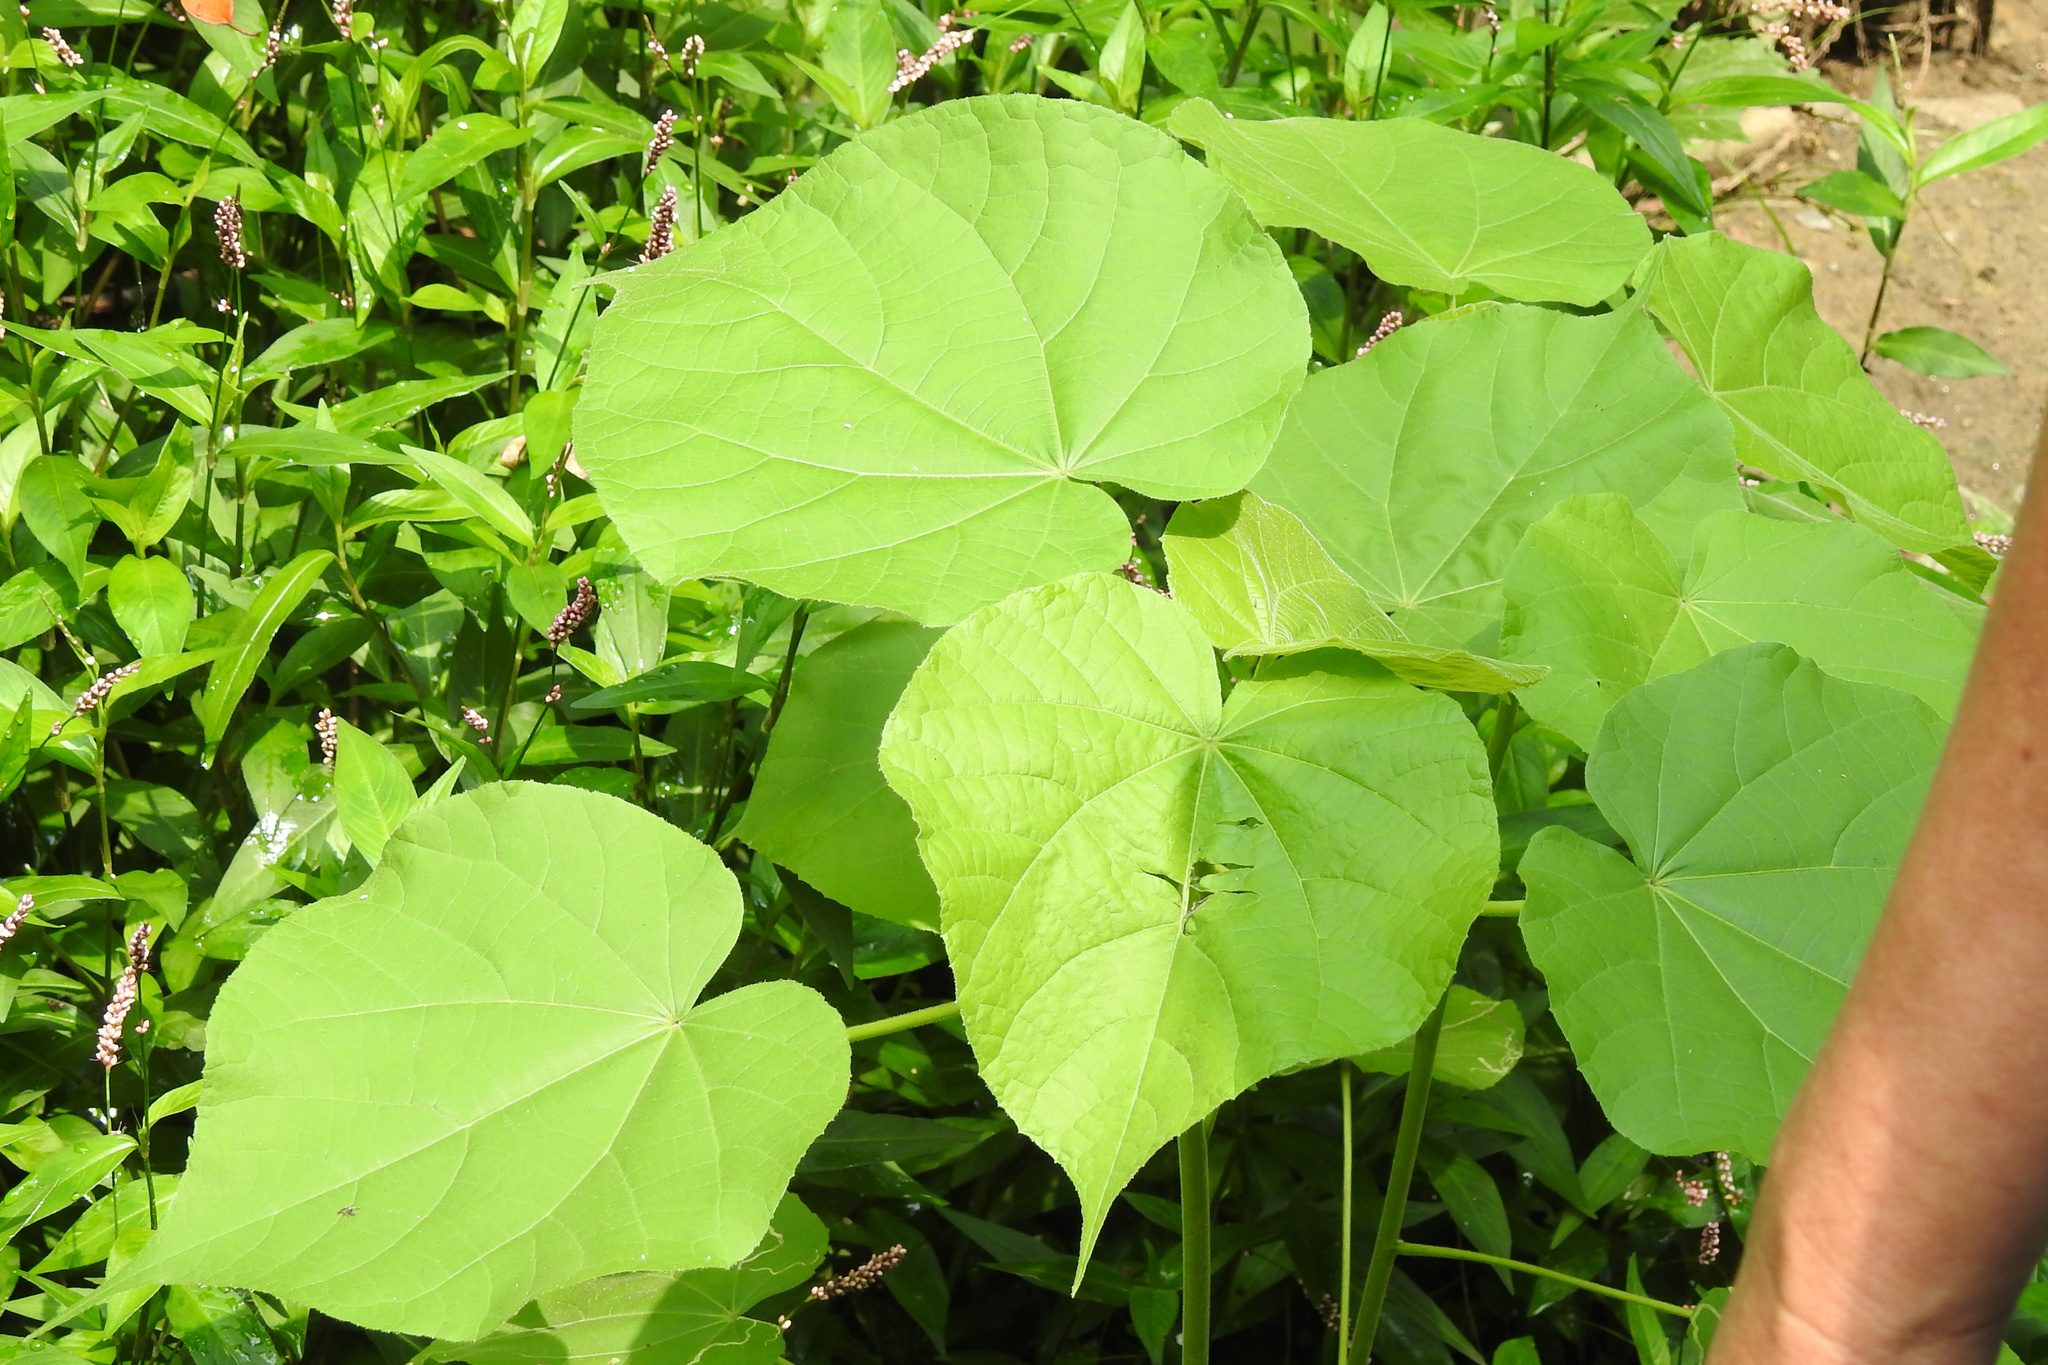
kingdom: Plantae
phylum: Tracheophyta
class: Magnoliopsida
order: Malvales
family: Malvaceae
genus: Abutilon
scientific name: Abutilon theophrasti
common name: Velvetleaf
